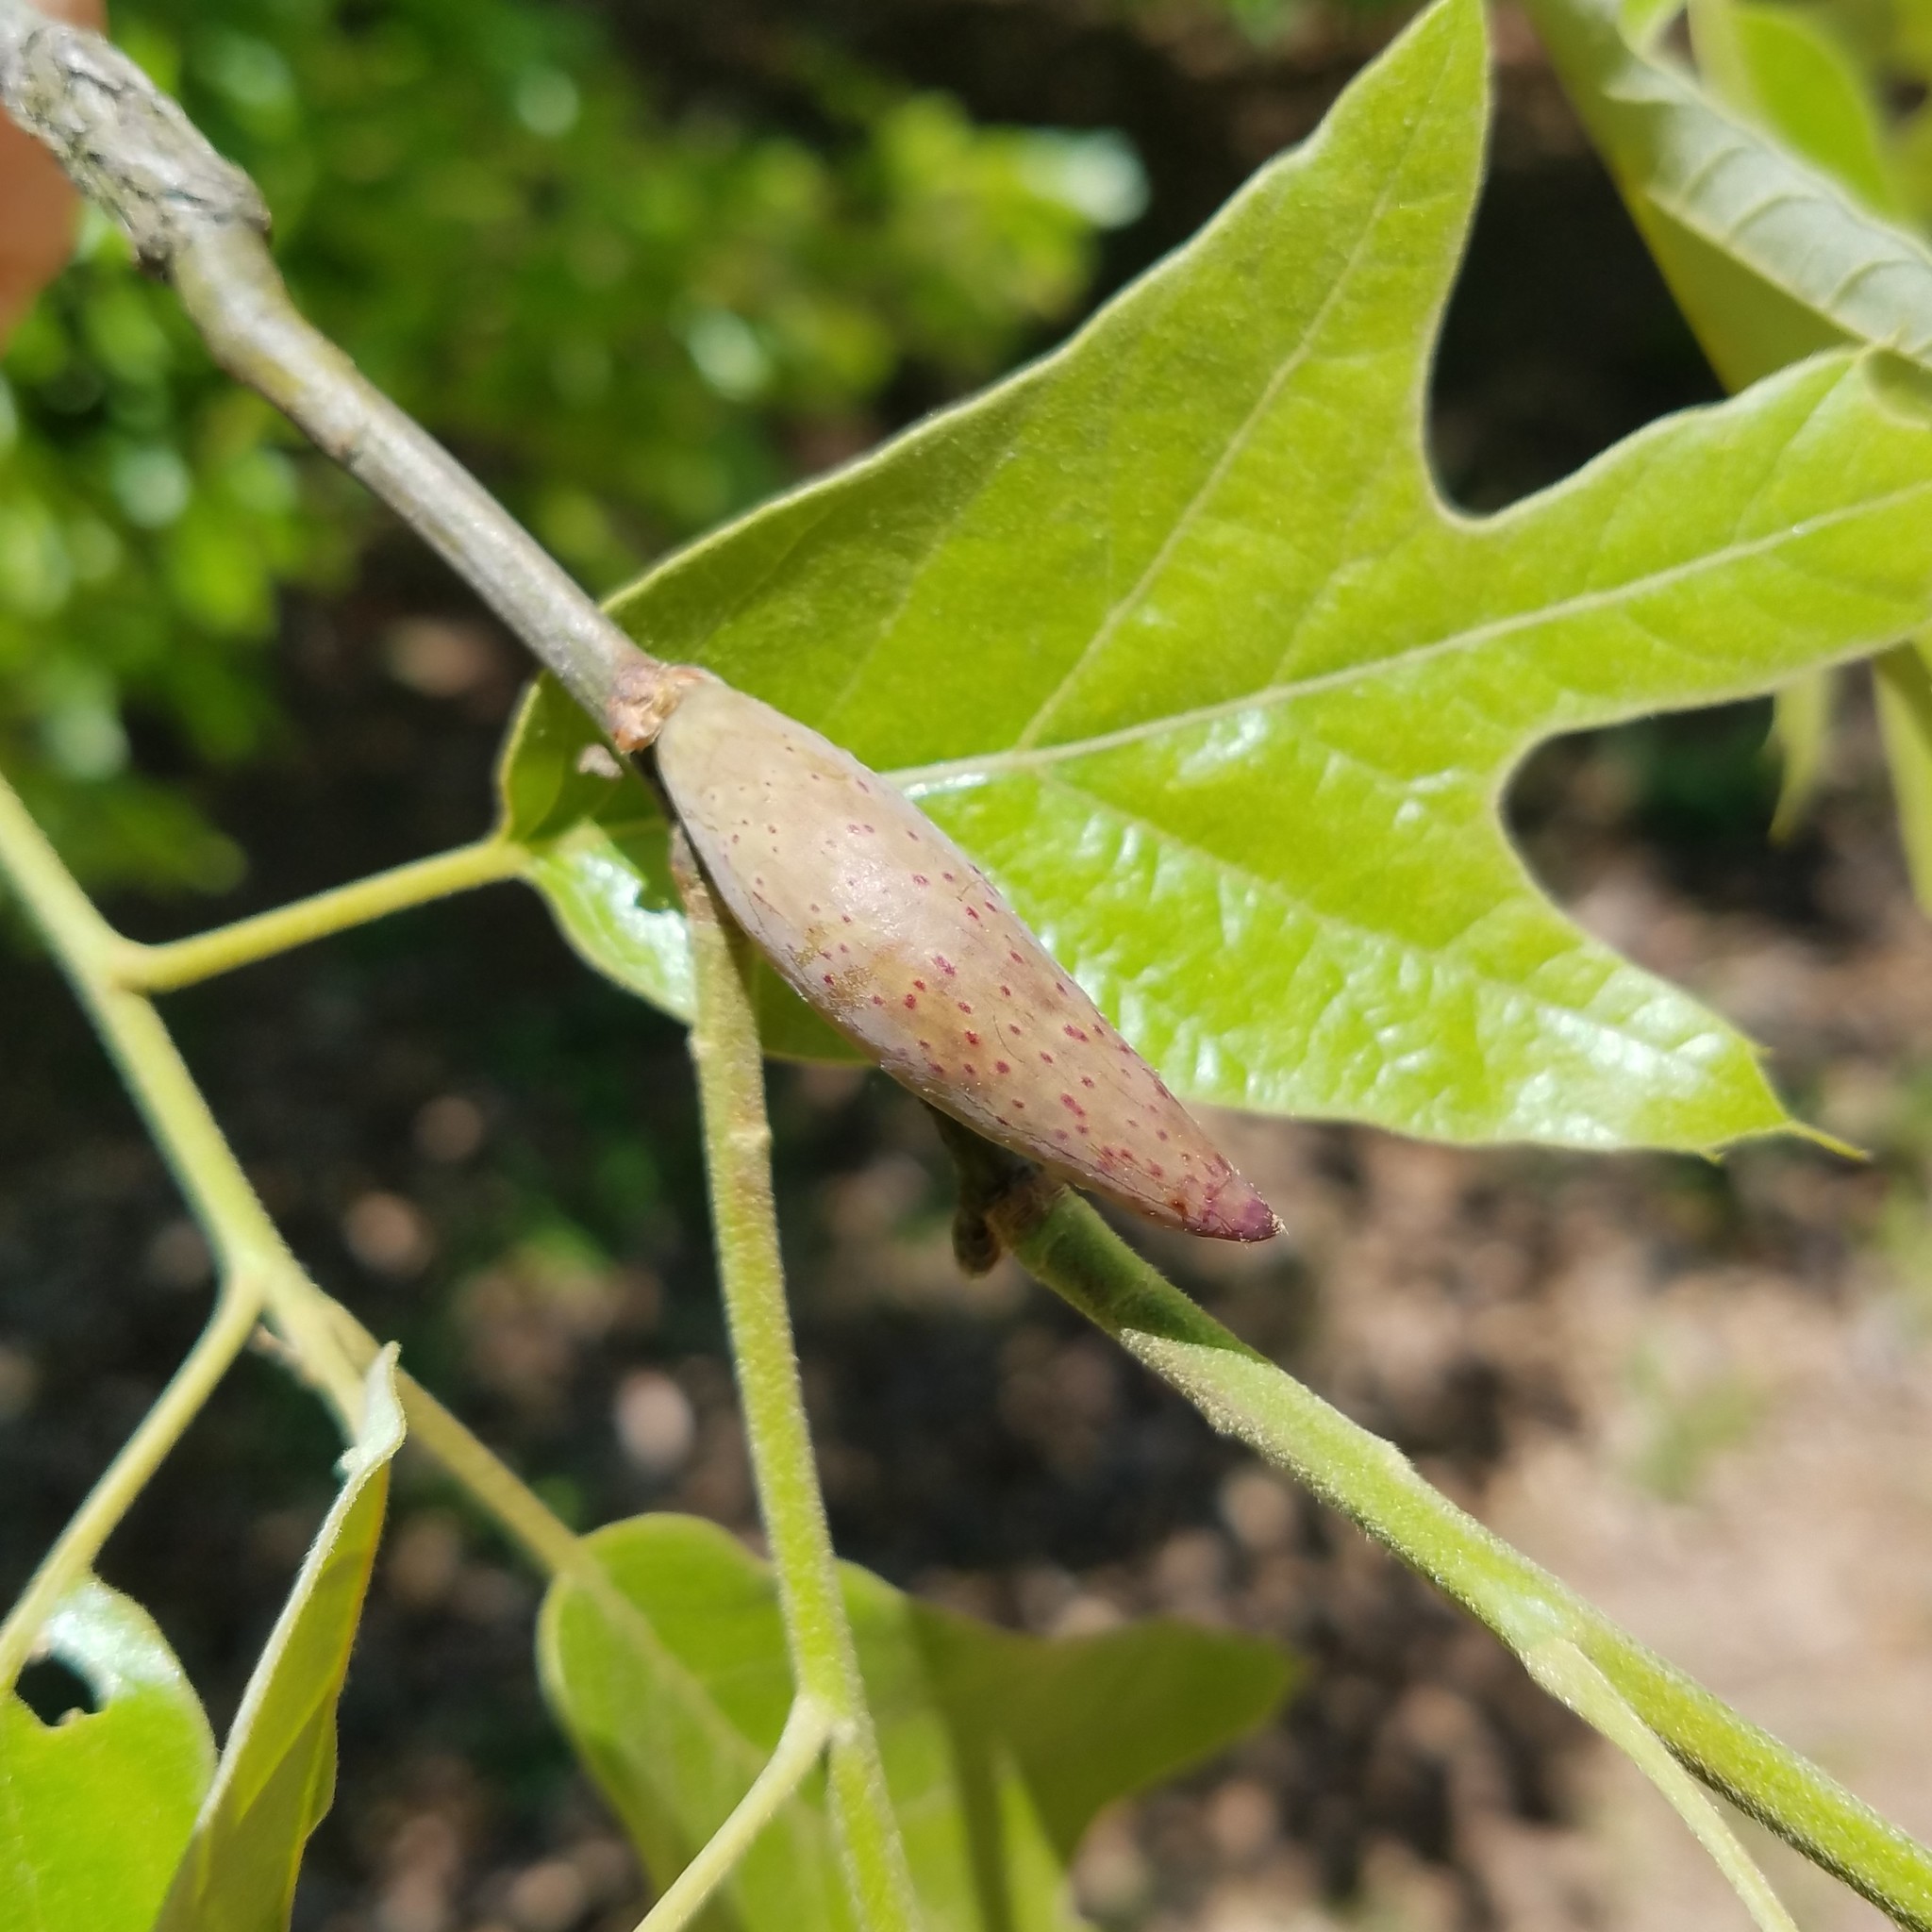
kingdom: Animalia
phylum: Arthropoda
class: Insecta
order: Hymenoptera
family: Cynipidae
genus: Amphibolips
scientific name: Amphibolips
